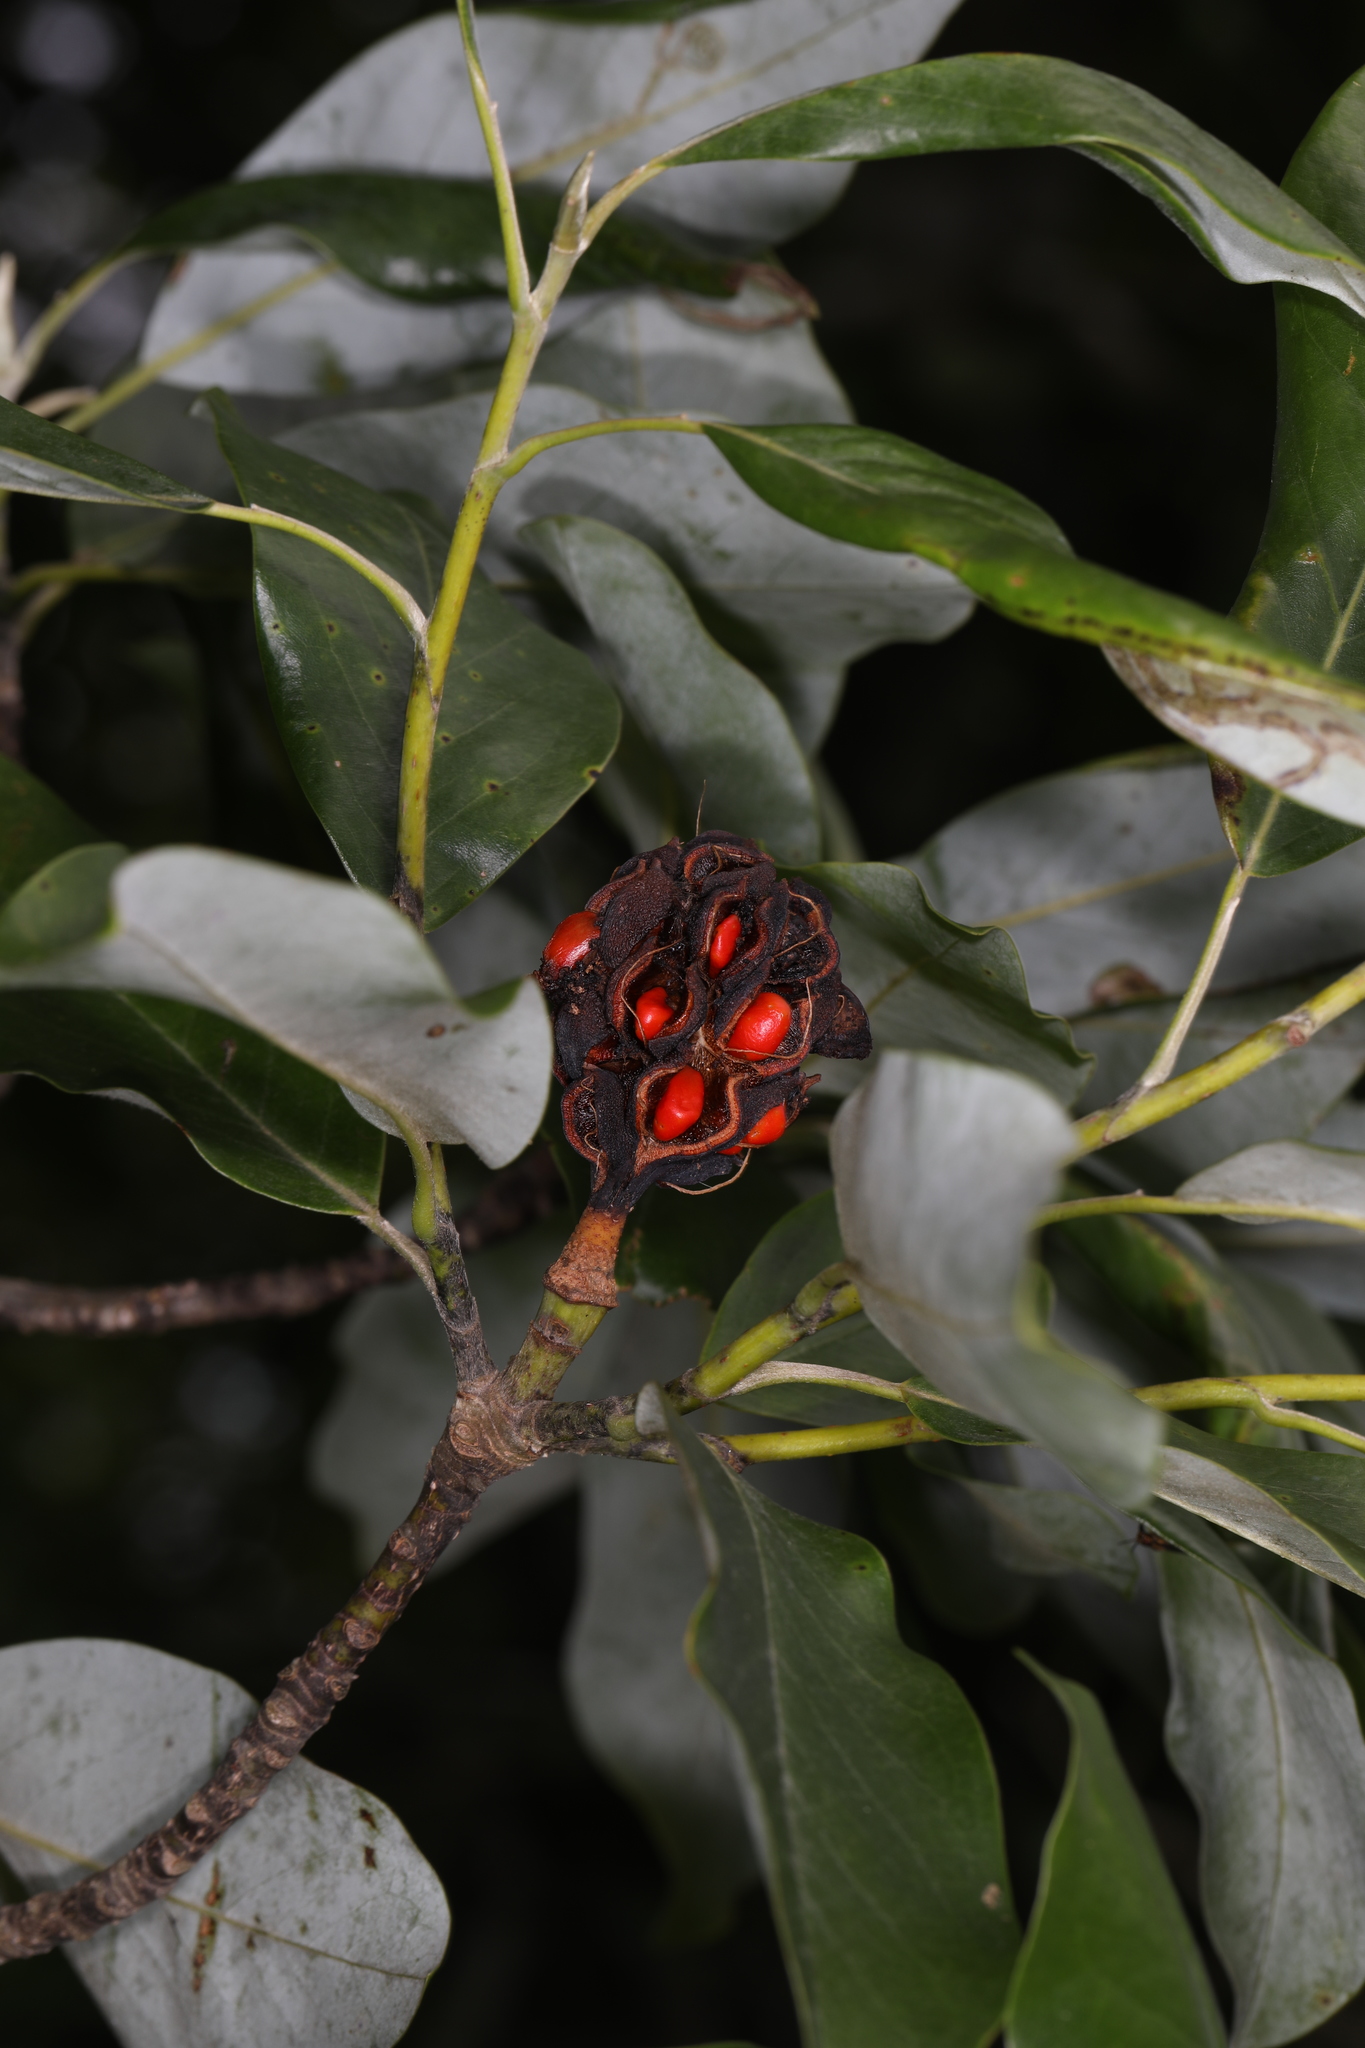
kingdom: Plantae
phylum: Tracheophyta
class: Magnoliopsida
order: Magnoliales
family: Magnoliaceae
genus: Magnolia
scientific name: Magnolia virginiana
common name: Swamp bay
